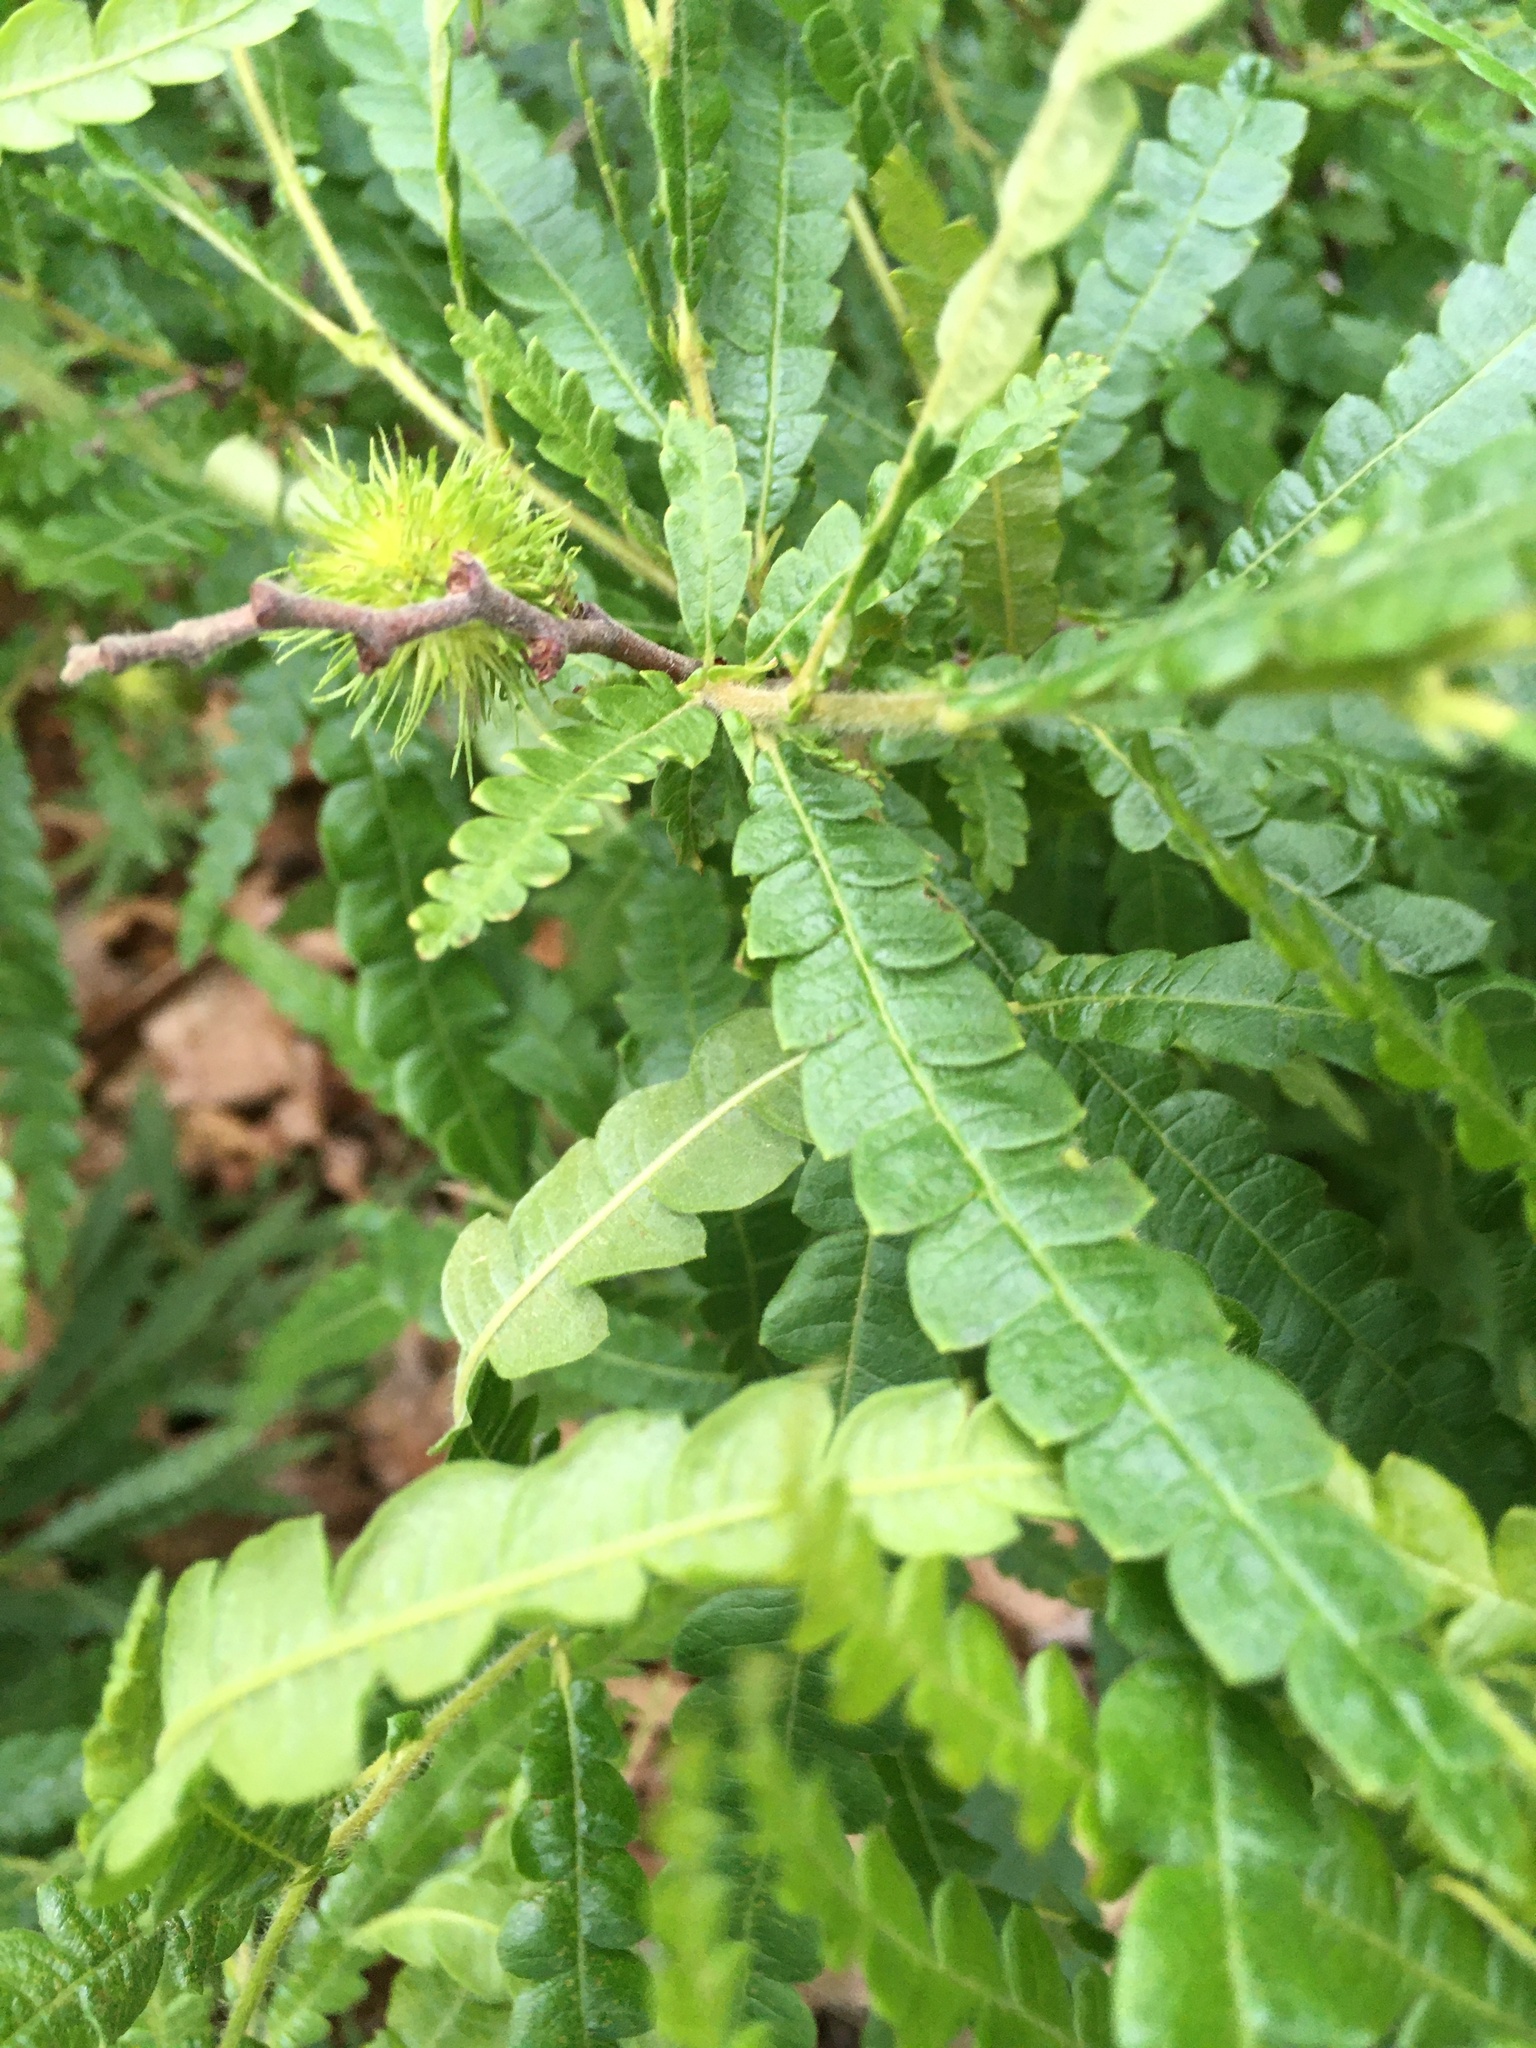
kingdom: Plantae
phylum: Tracheophyta
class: Magnoliopsida
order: Fagales
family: Myricaceae
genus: Comptonia
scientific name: Comptonia peregrina
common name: Sweet-fern
